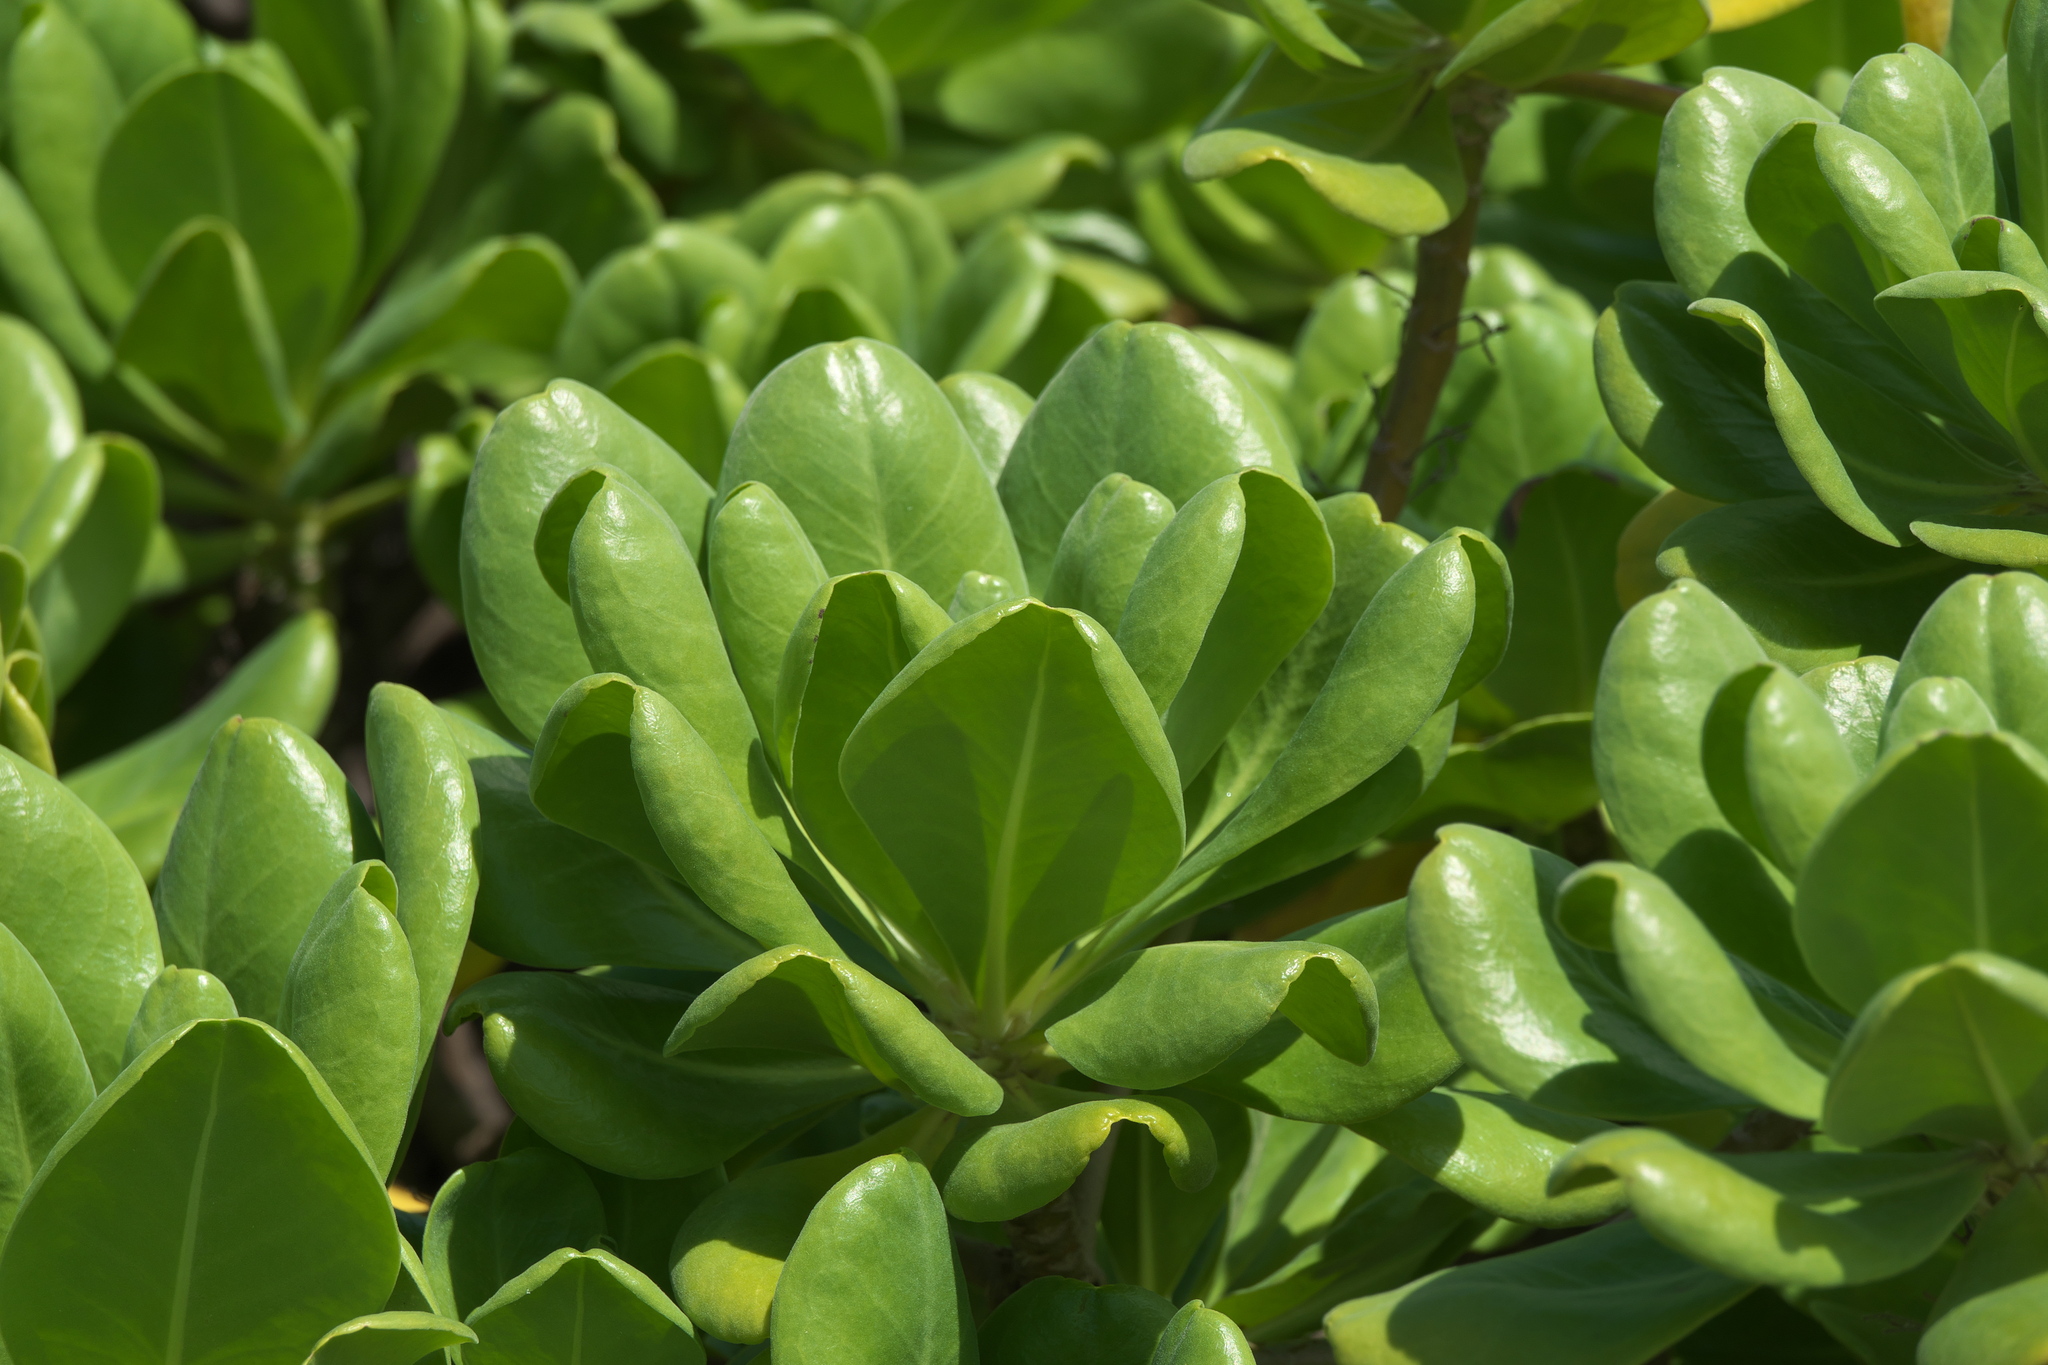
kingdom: Plantae
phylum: Tracheophyta
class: Magnoliopsida
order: Asterales
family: Goodeniaceae
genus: Scaevola
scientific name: Scaevola taccada
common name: Sea lettucetree
